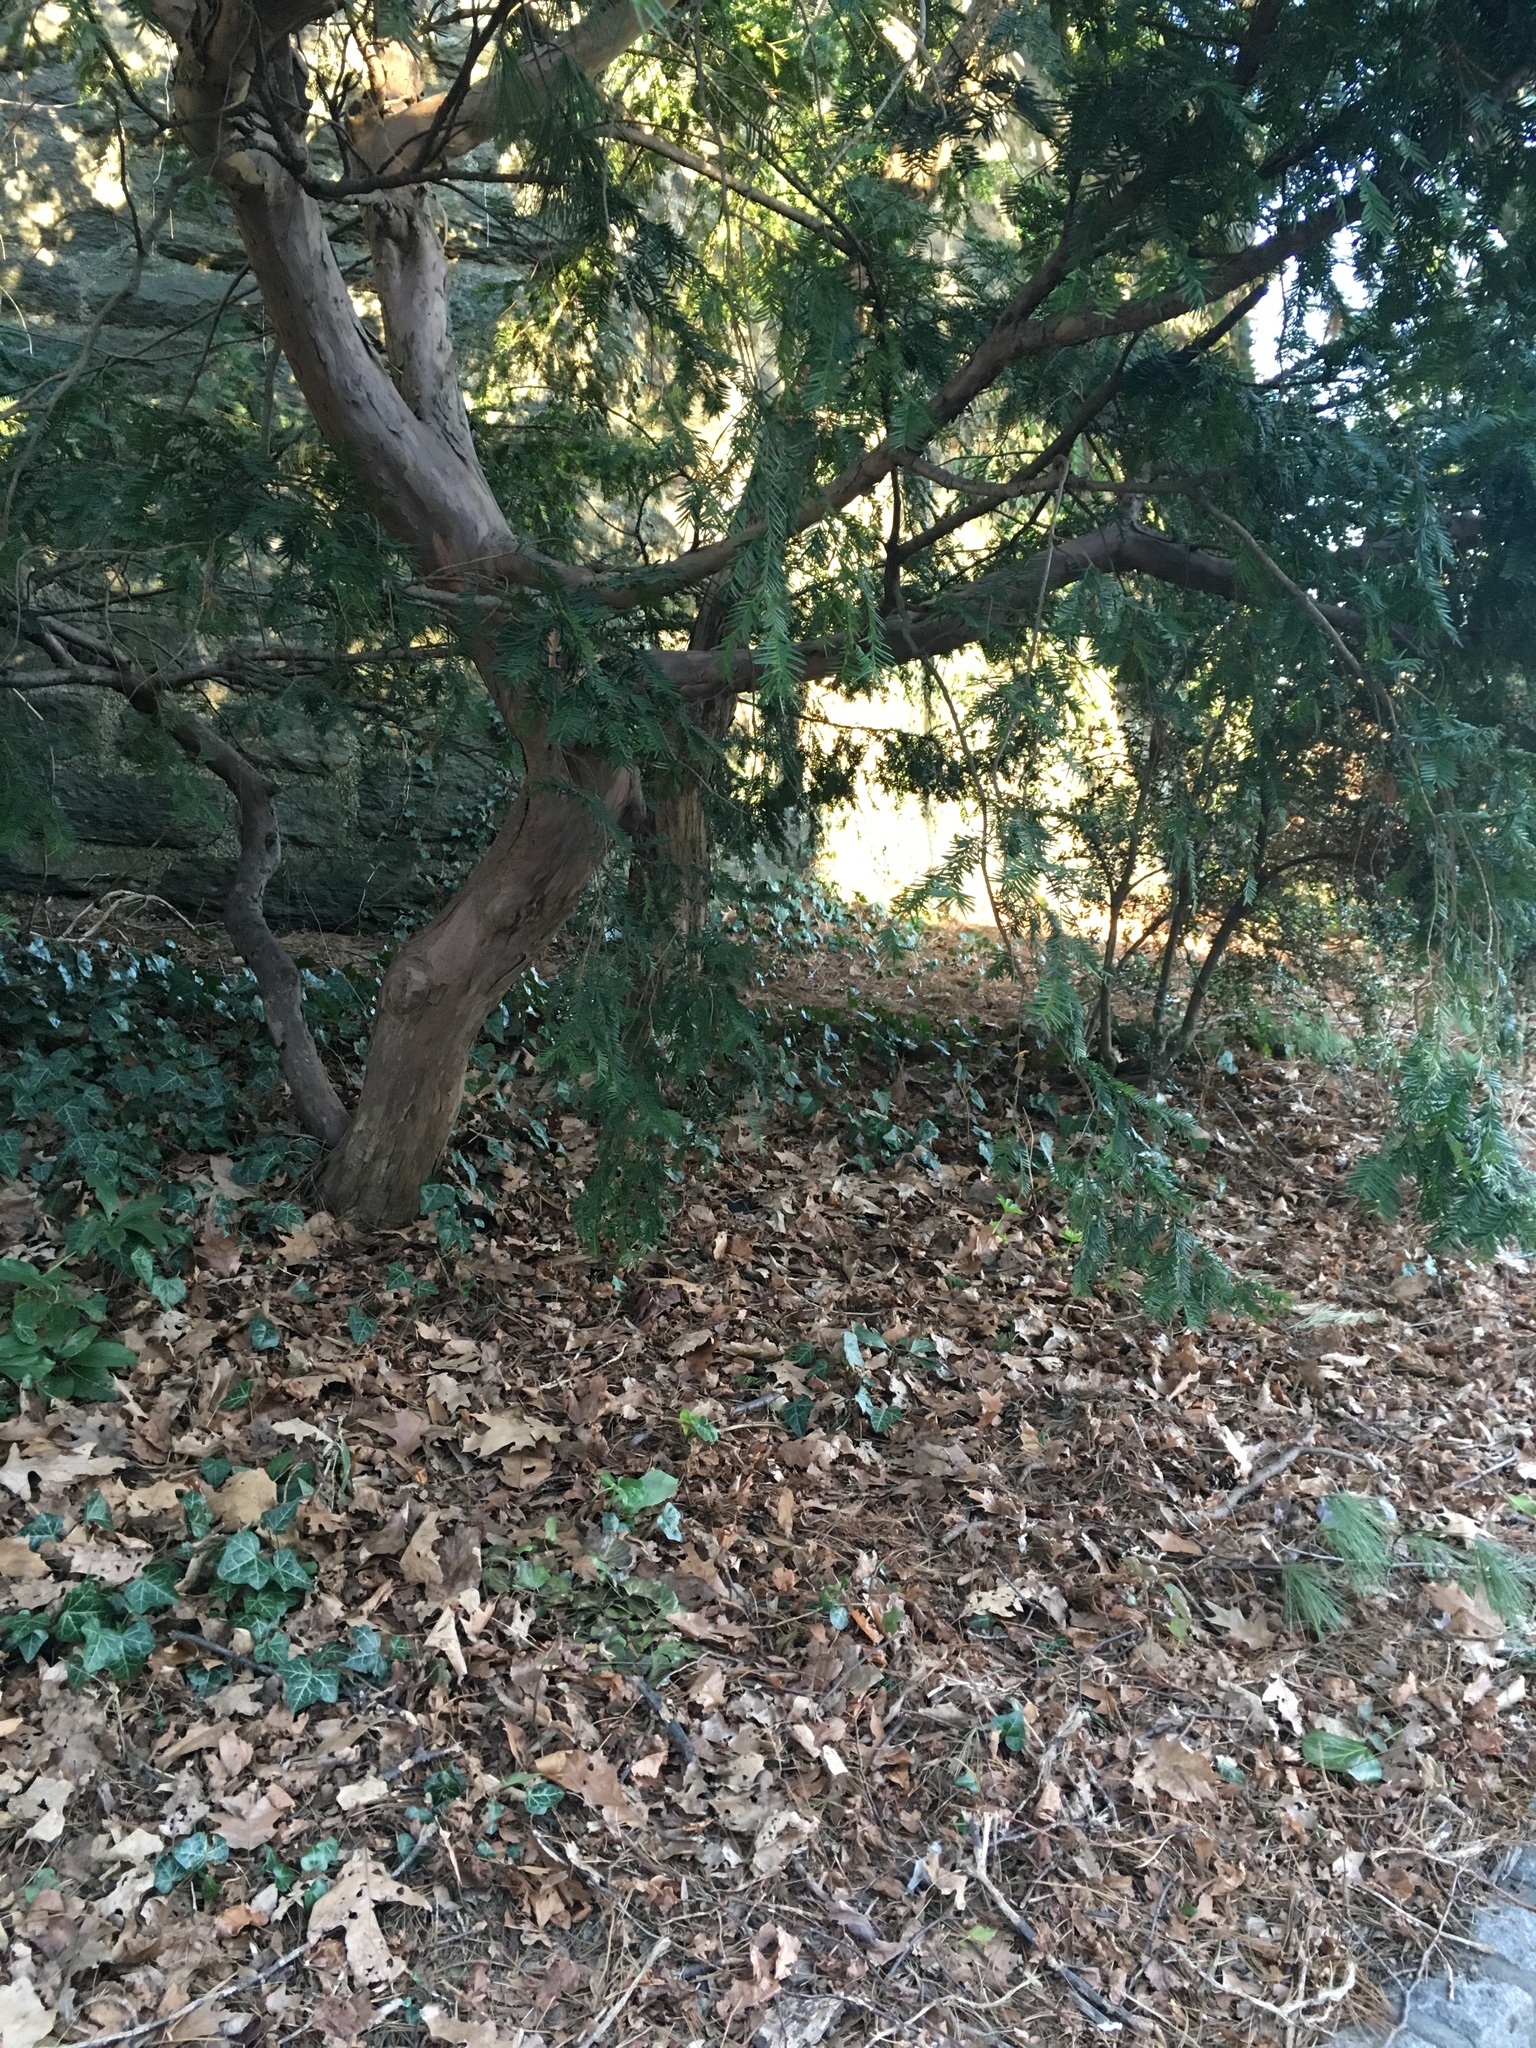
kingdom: Plantae
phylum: Tracheophyta
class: Liliopsida
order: Alismatales
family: Araceae
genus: Arum
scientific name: Arum italicum
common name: Italian lords-and-ladies
